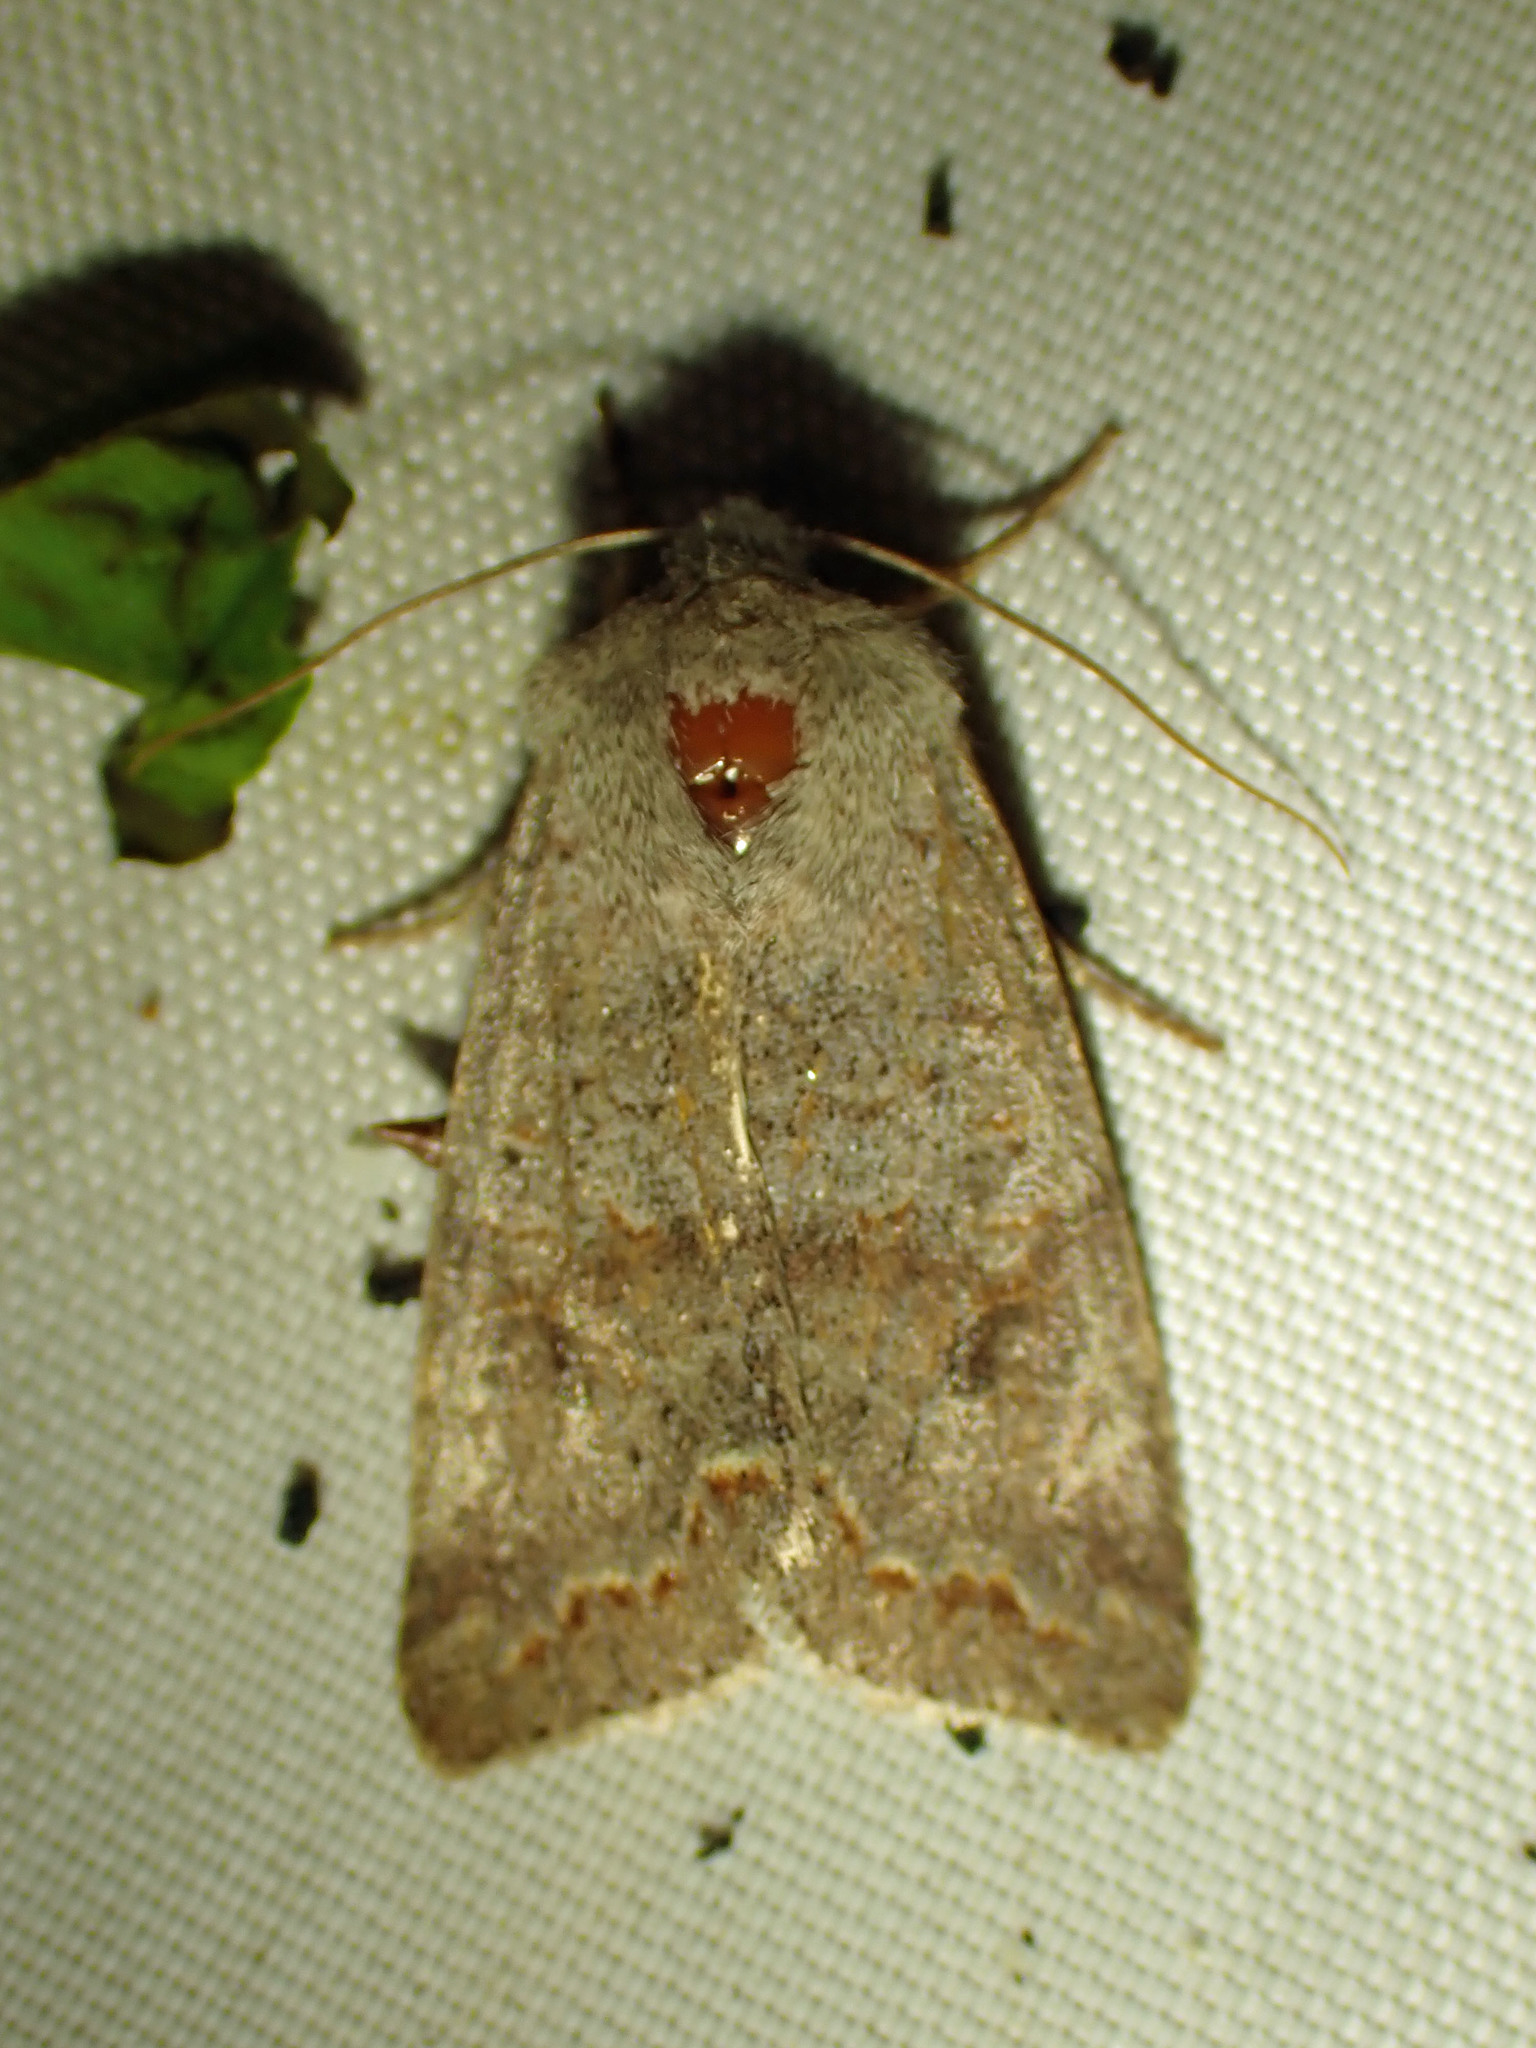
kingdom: Animalia
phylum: Arthropoda
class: Insecta
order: Lepidoptera
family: Noctuidae
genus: Orthosia
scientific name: Orthosia revicta
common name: Rusty whitesided caterpillar
